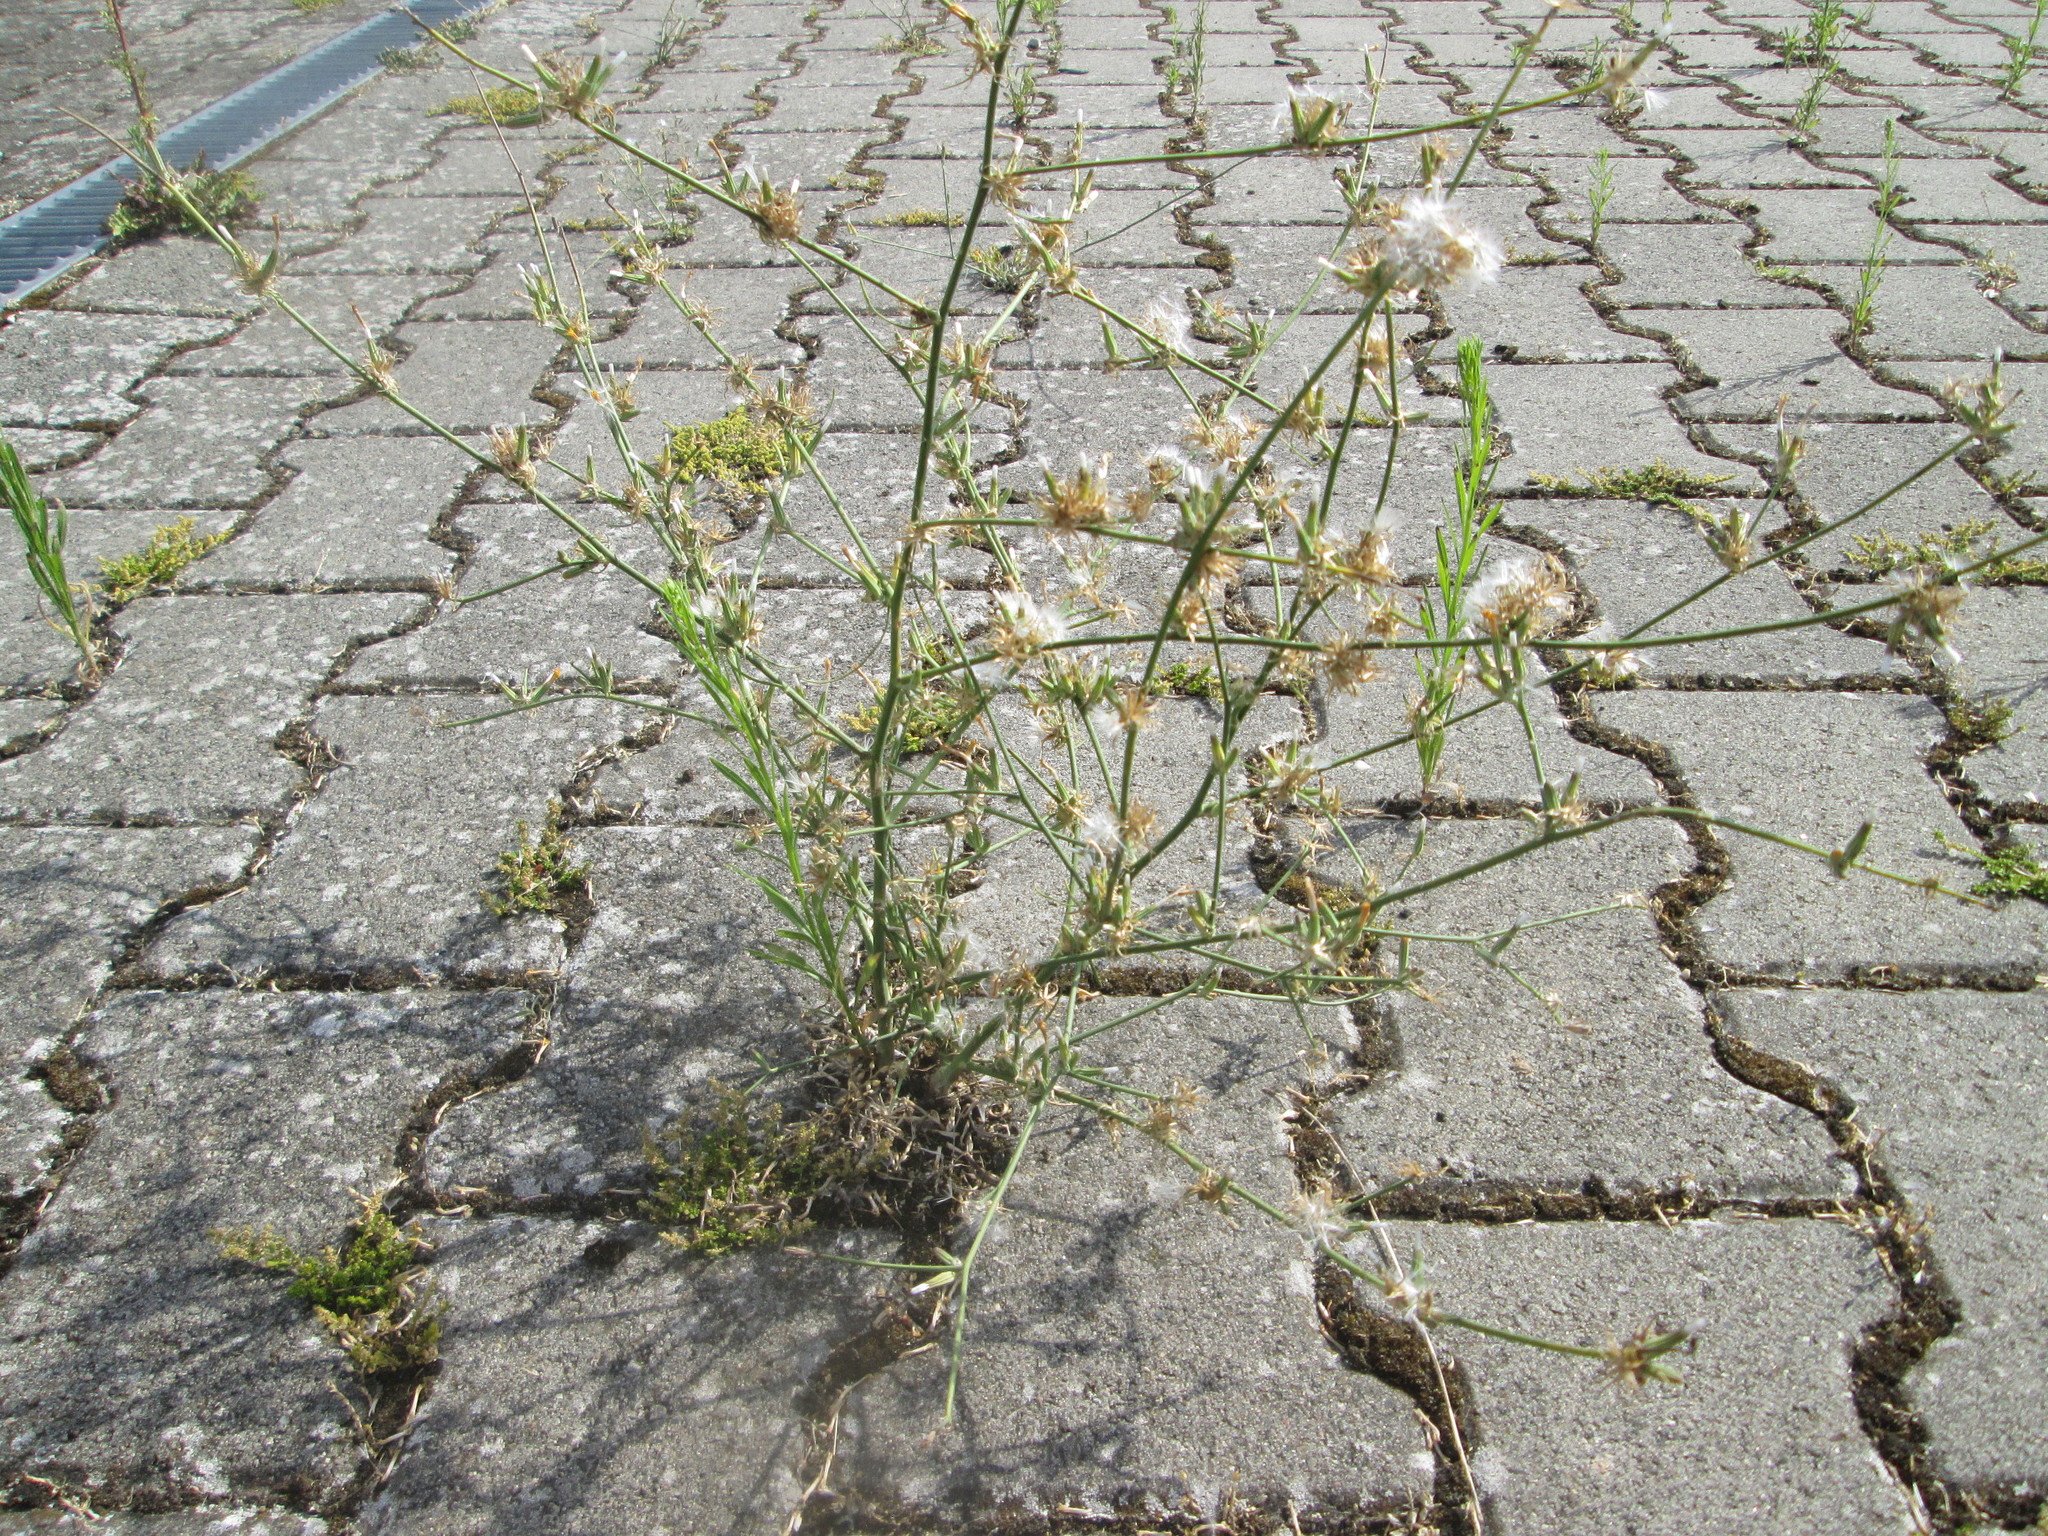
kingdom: Plantae
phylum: Tracheophyta
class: Magnoliopsida
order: Asterales
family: Asteraceae
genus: Chondrilla
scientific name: Chondrilla juncea
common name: Skeleton weed
